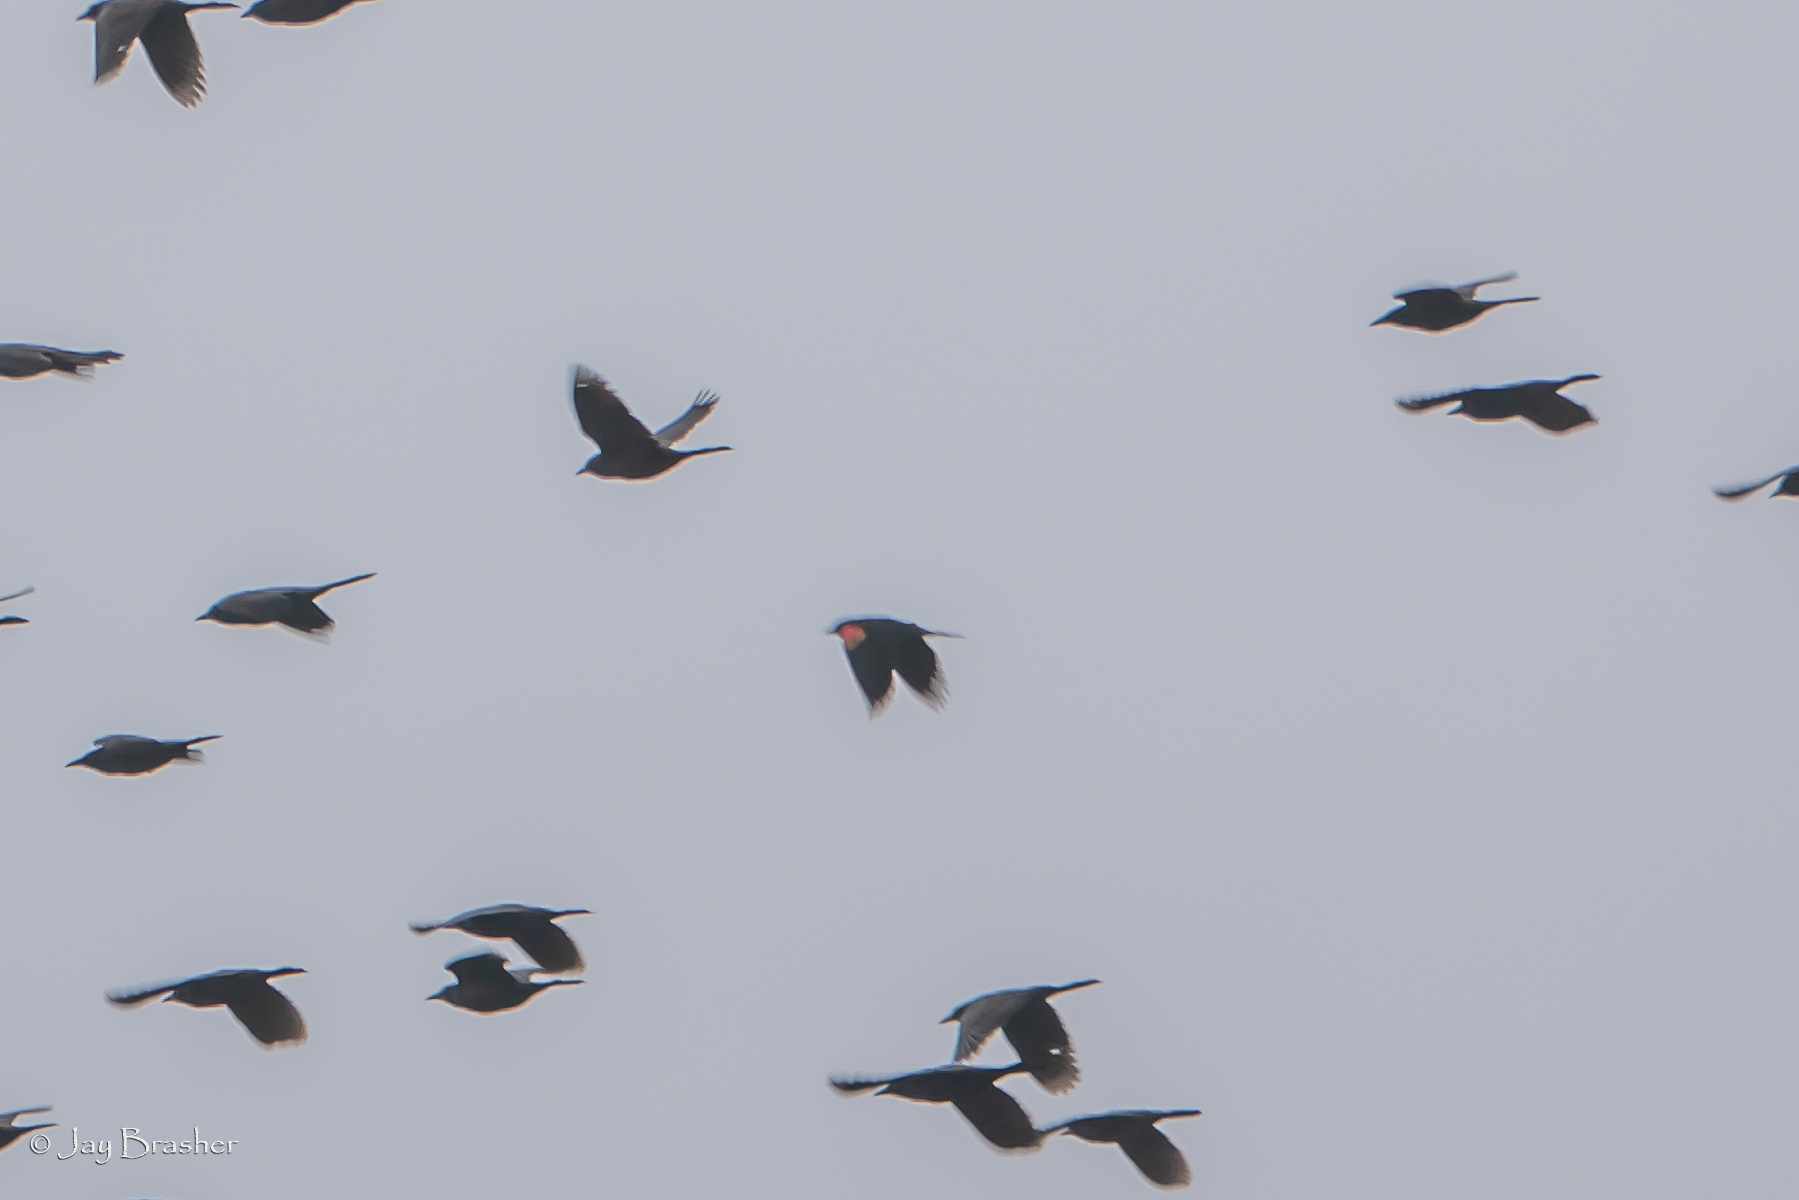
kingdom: Animalia
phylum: Chordata
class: Aves
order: Passeriformes
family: Icteridae
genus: Agelaius
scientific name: Agelaius phoeniceus
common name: Red-winged blackbird
